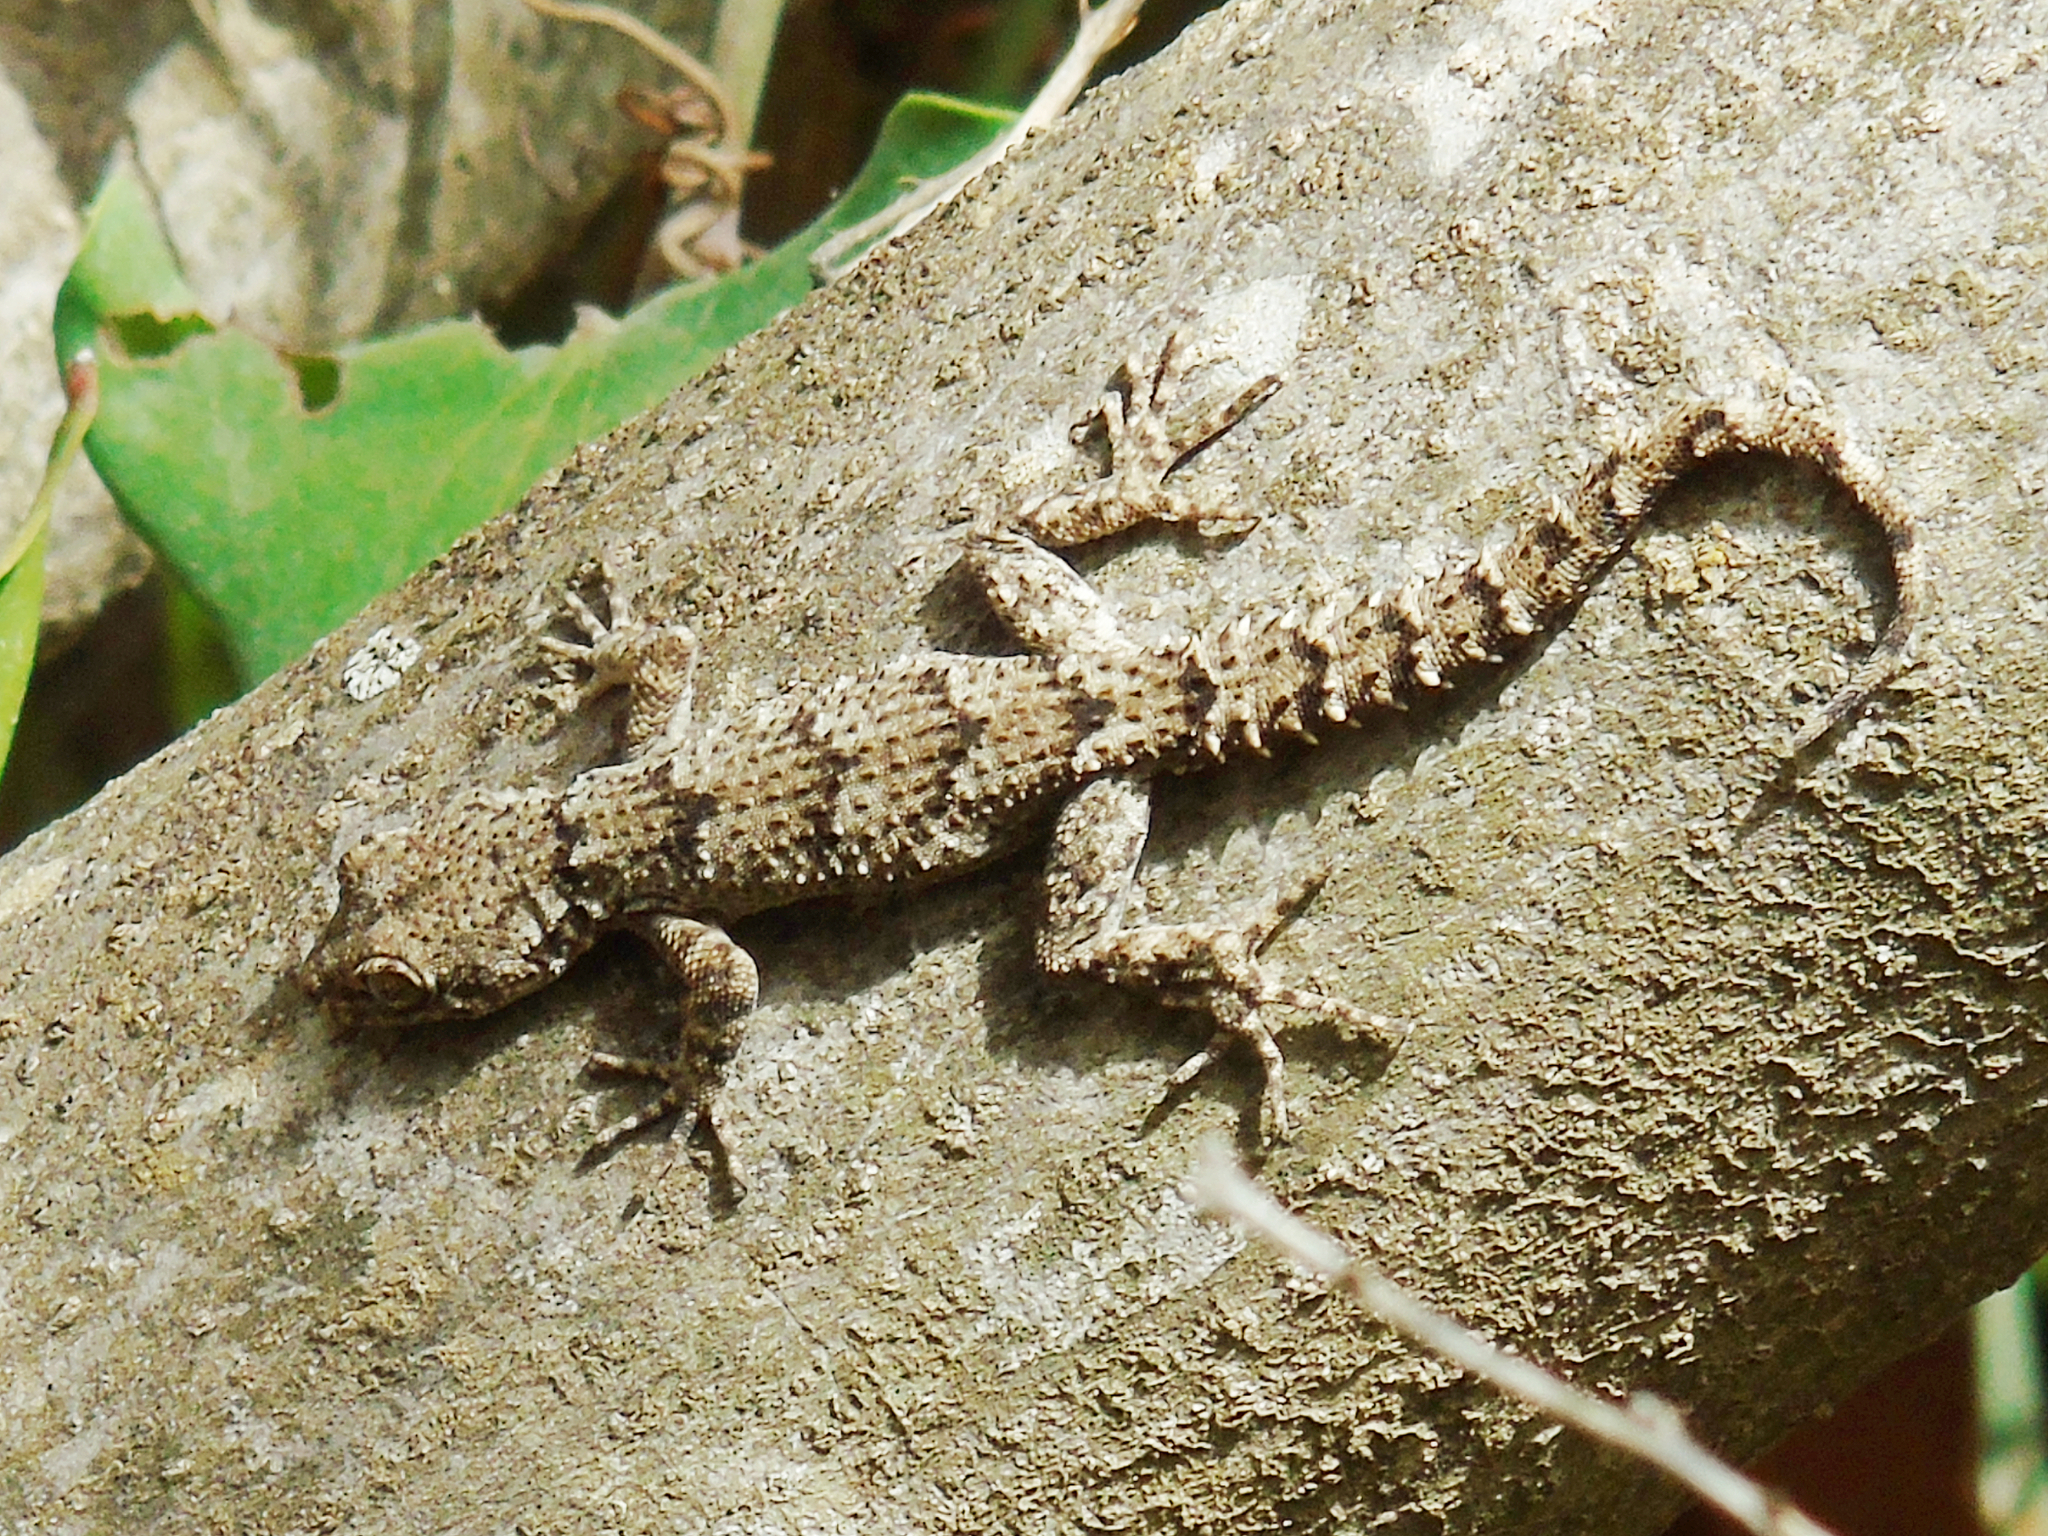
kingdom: Animalia
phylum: Chordata
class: Squamata
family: Gekkonidae
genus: Mediodactylus
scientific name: Mediodactylus kotschyi
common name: Kotschy's gecko
